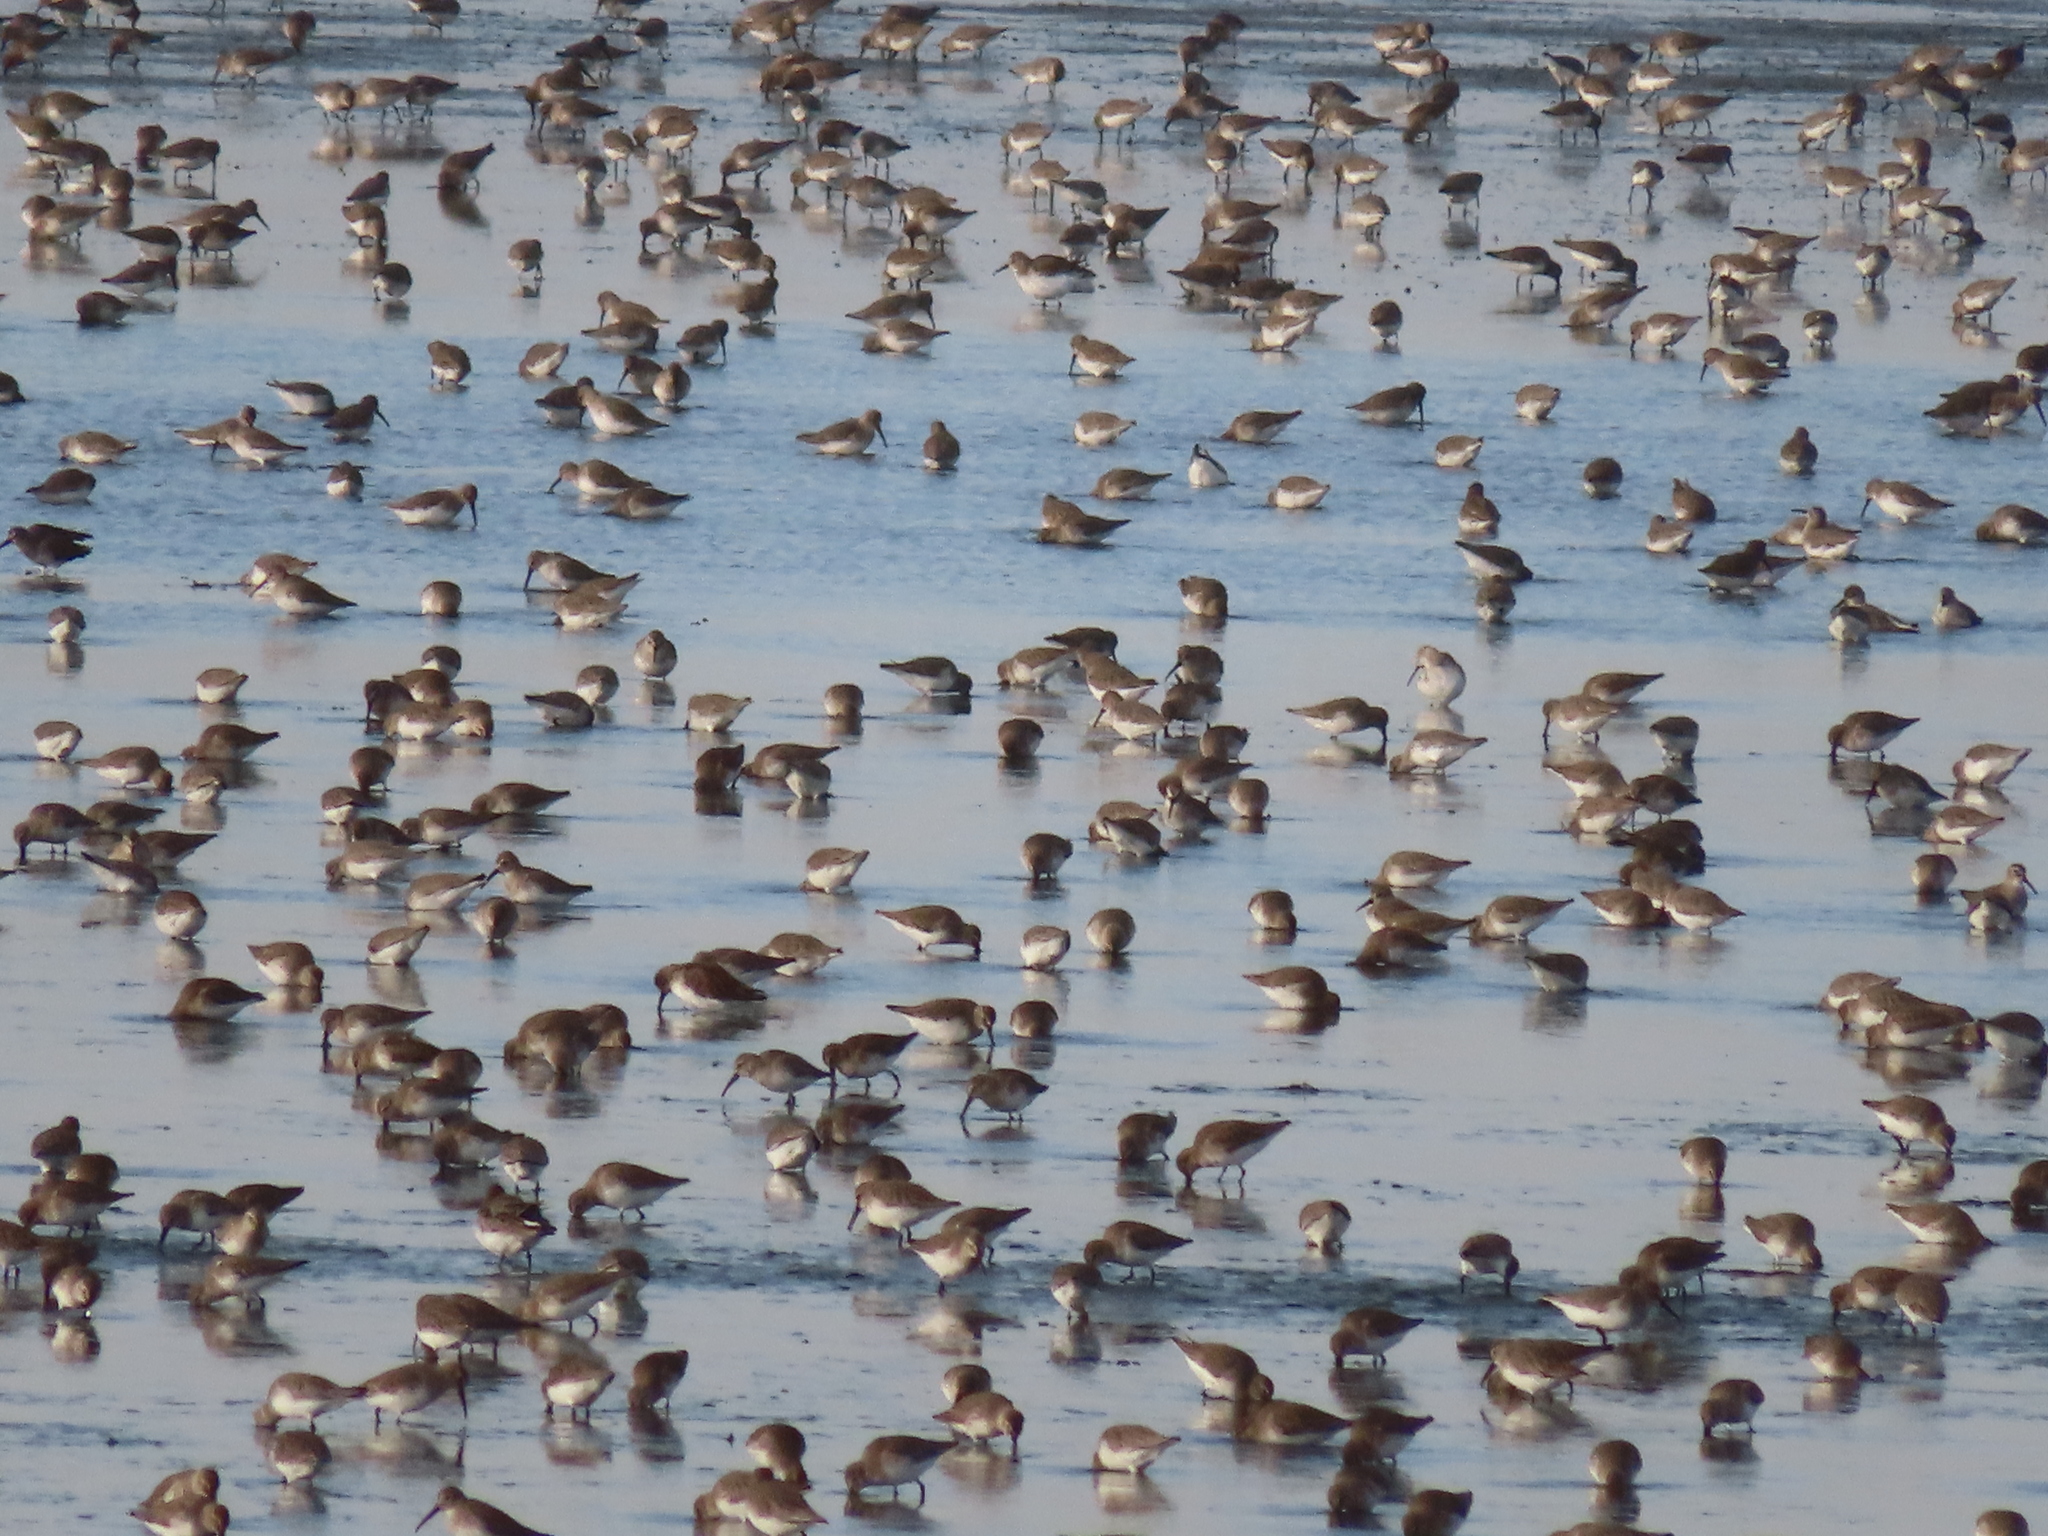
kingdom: Animalia
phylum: Chordata
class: Aves
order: Charadriiformes
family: Scolopacidae
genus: Calidris
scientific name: Calidris alpina
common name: Dunlin
